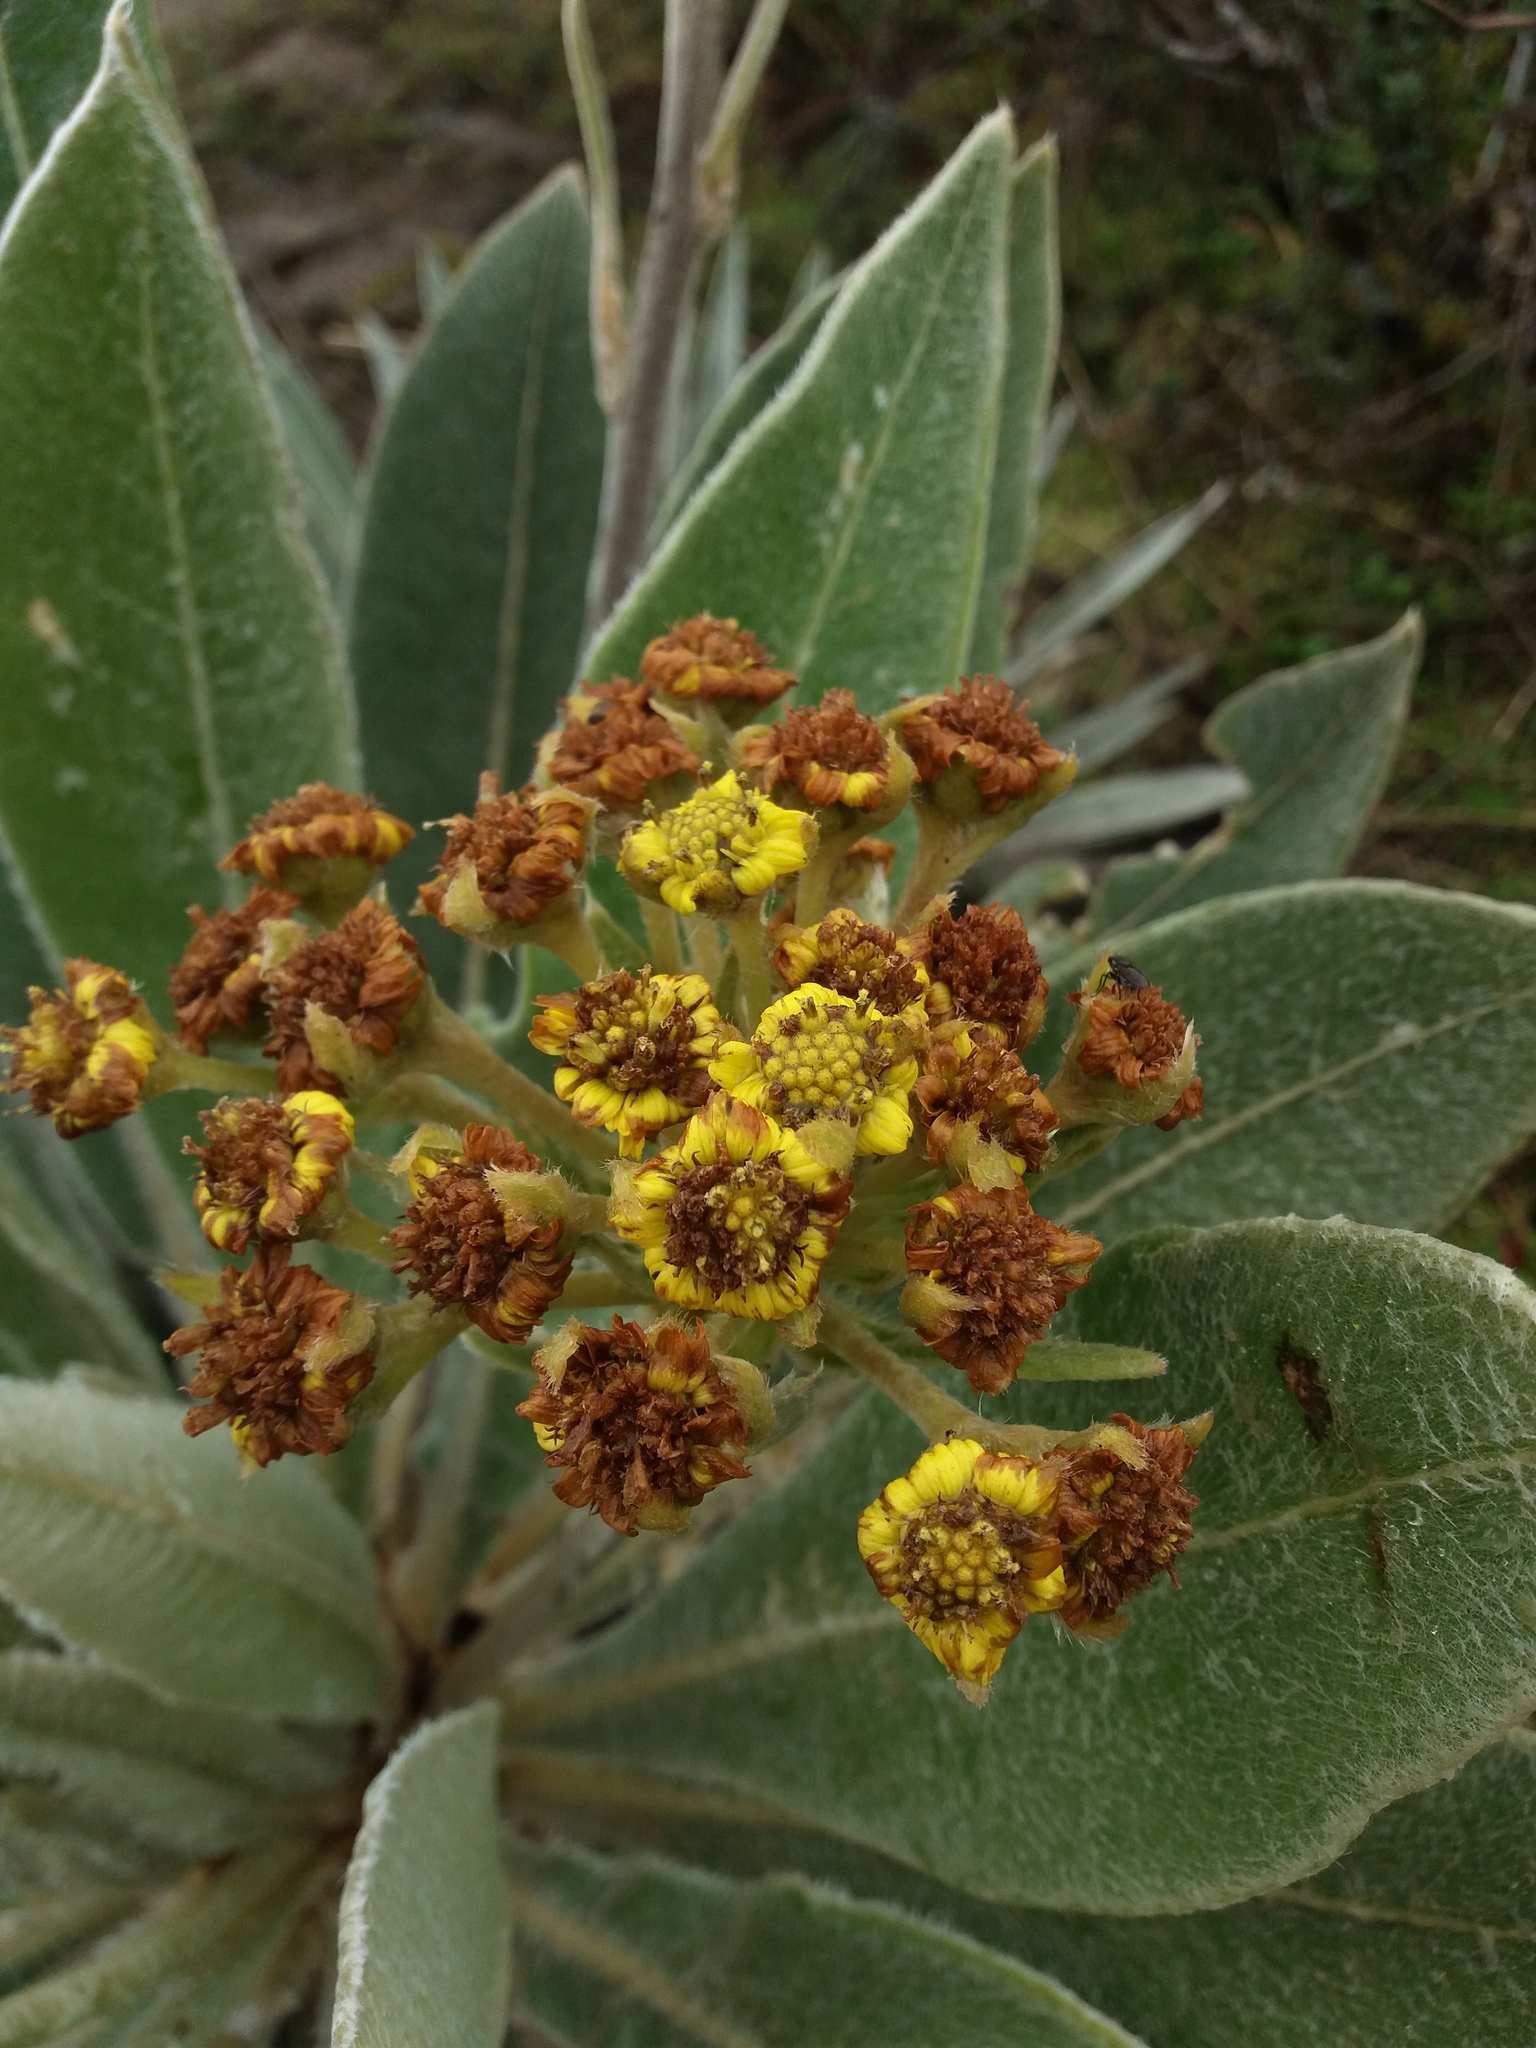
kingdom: Plantae
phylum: Tracheophyta
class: Magnoliopsida
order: Asterales
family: Asteraceae
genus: Espeletia
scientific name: Espeletia corymbosa
